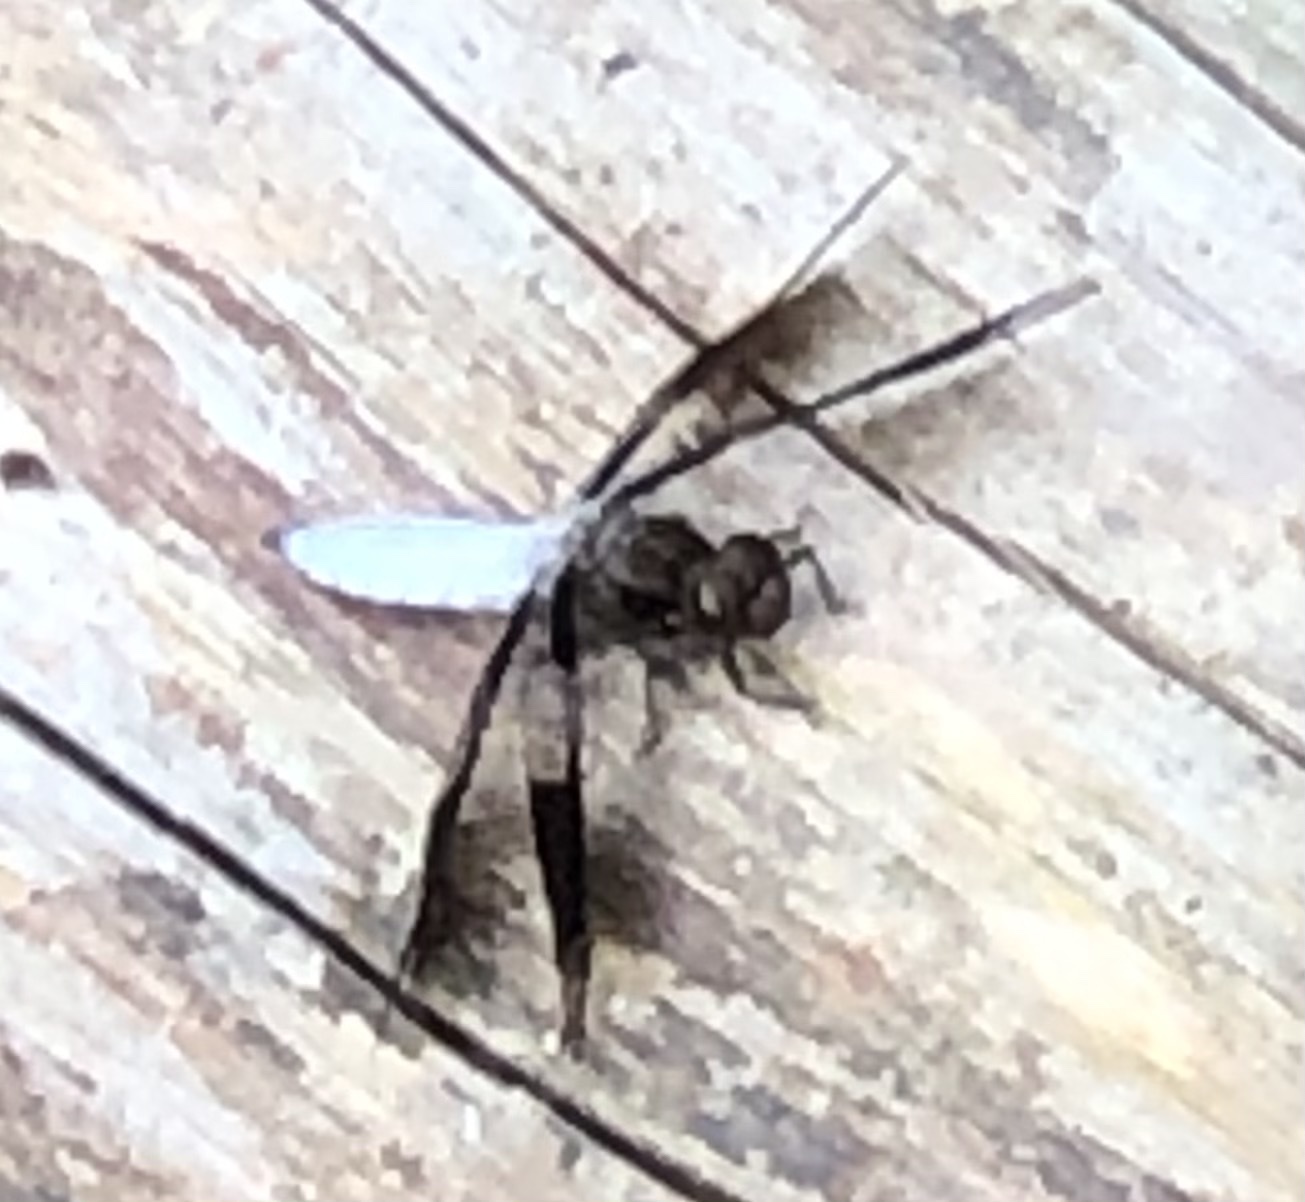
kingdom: Animalia
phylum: Arthropoda
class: Insecta
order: Odonata
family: Libellulidae
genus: Plathemis
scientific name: Plathemis lydia
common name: Common whitetail
